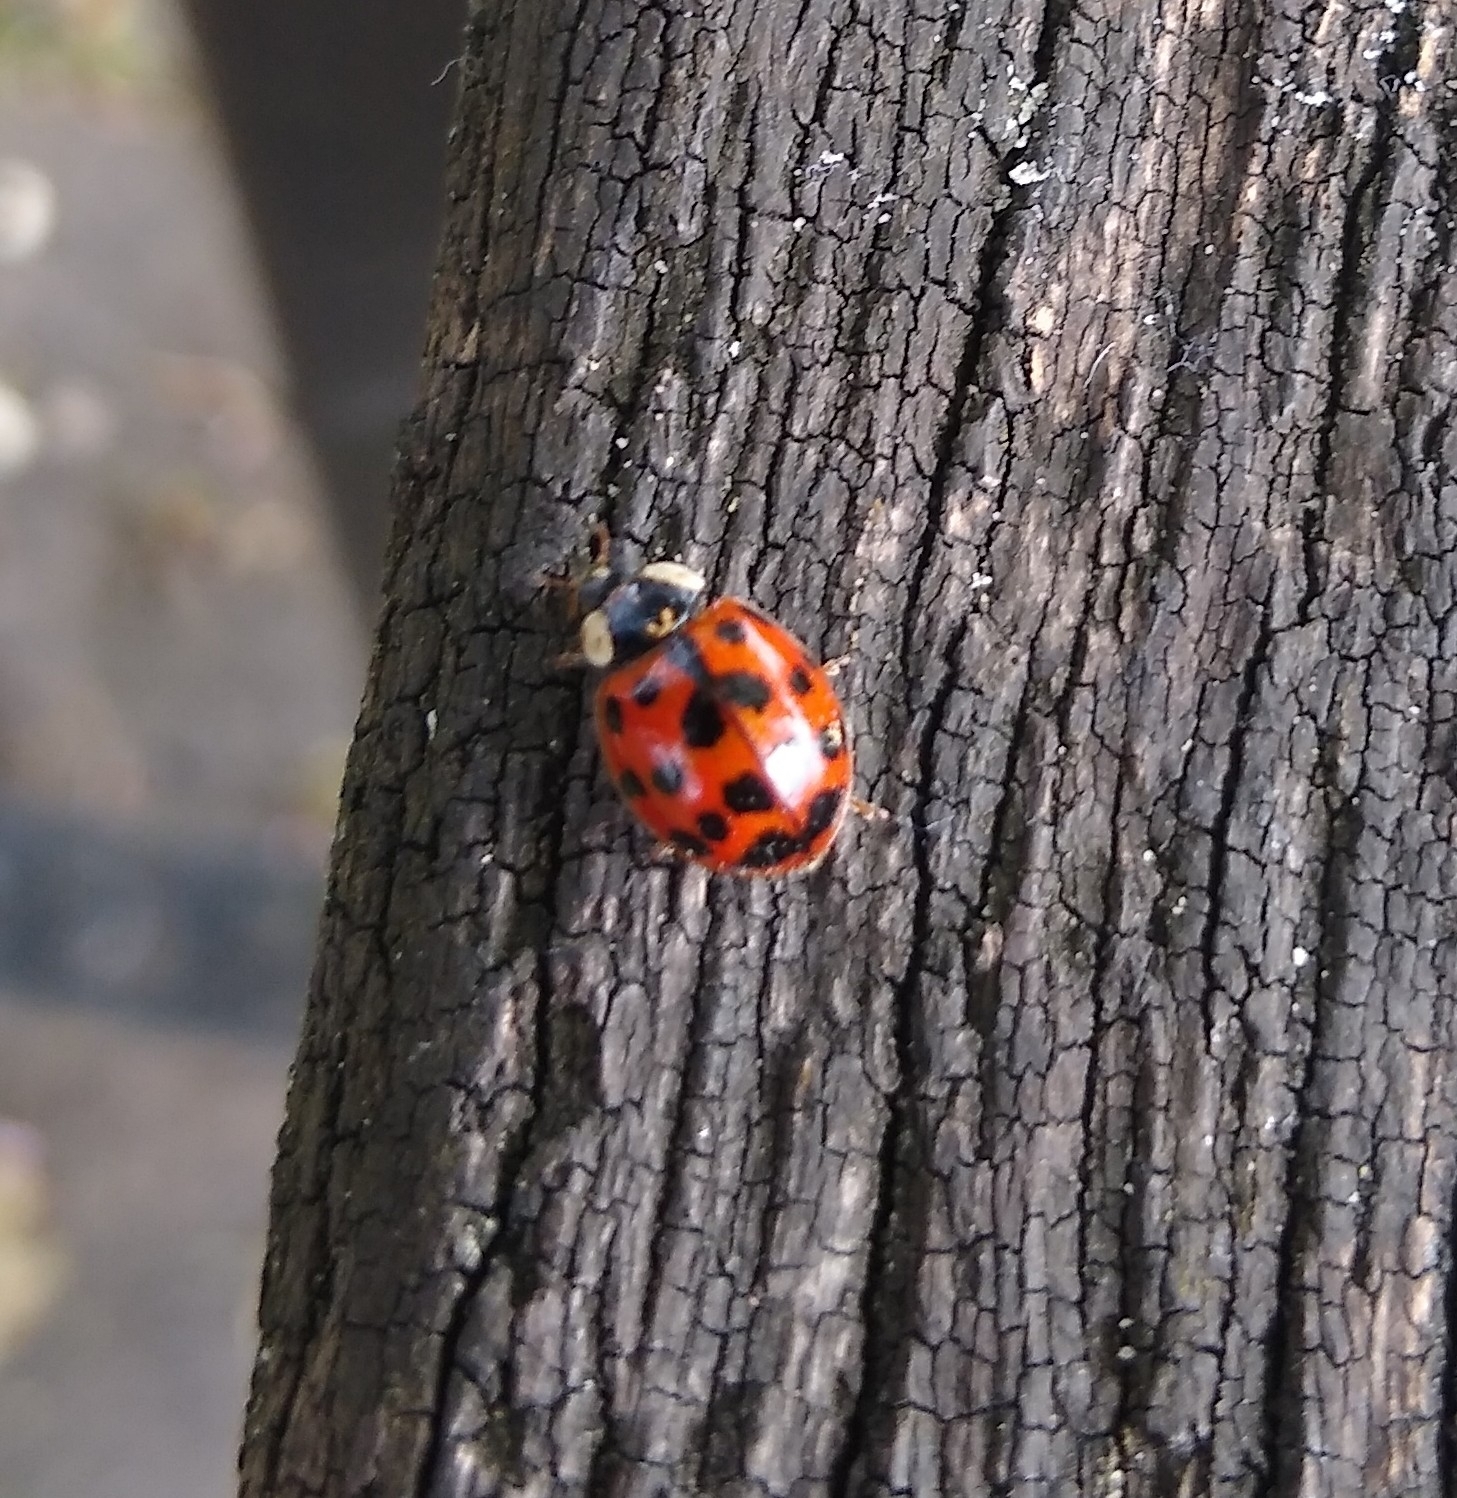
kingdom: Animalia
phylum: Arthropoda
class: Insecta
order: Coleoptera
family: Coccinellidae
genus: Harmonia
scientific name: Harmonia axyridis
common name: Harlequin ladybird
